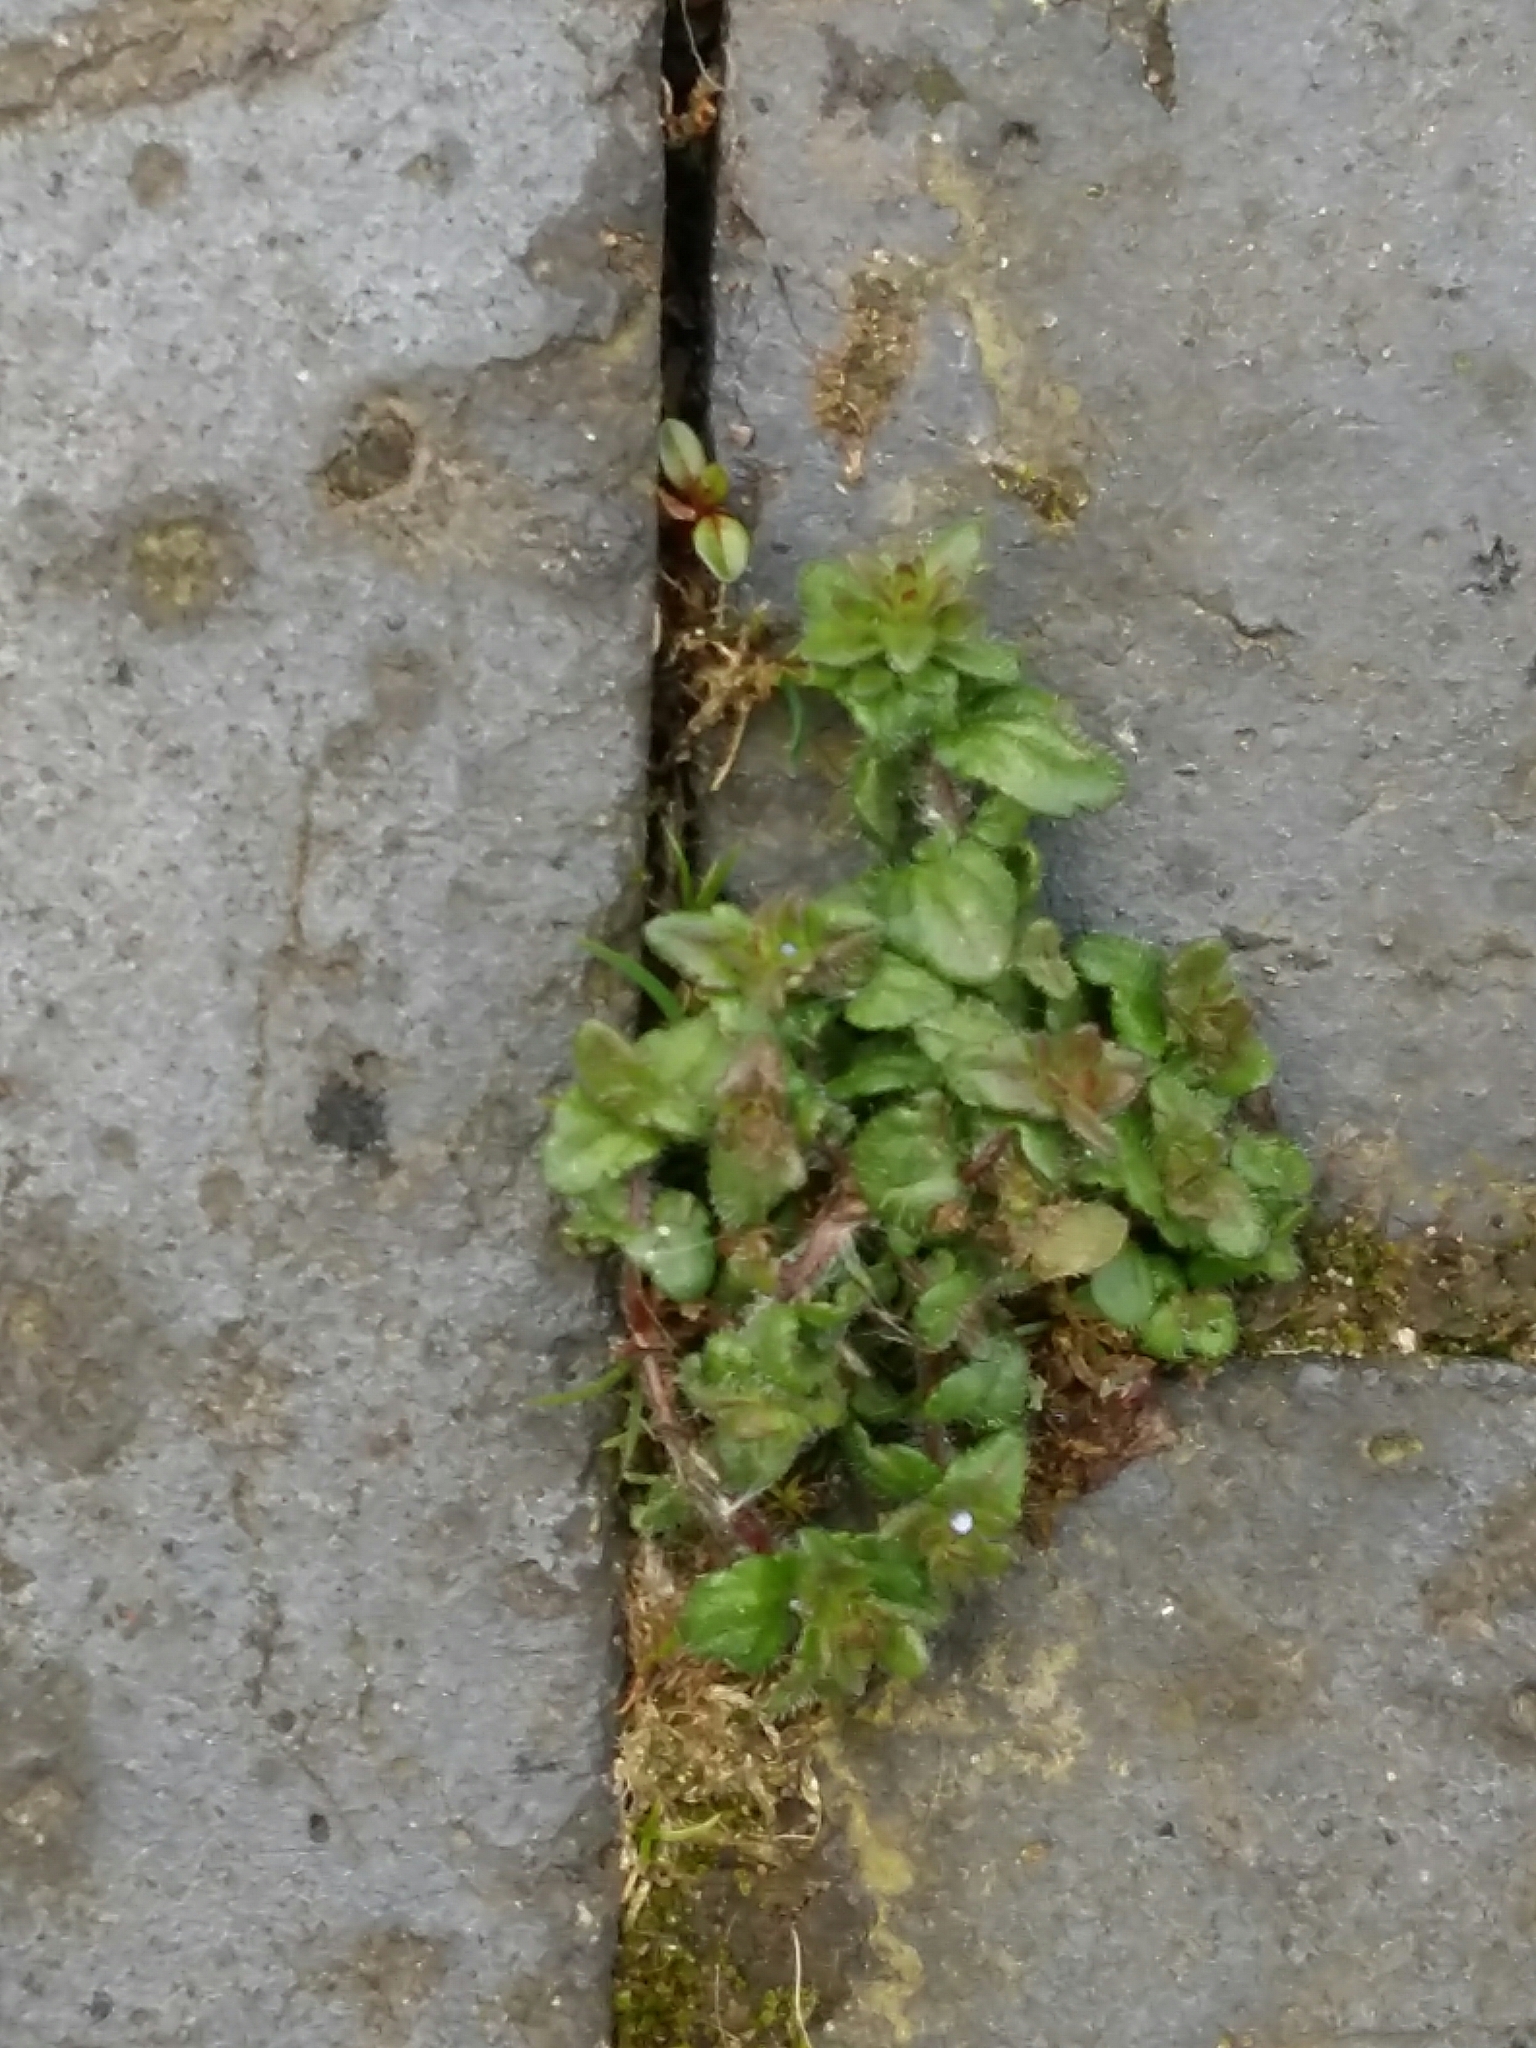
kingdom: Plantae
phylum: Tracheophyta
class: Magnoliopsida
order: Lamiales
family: Plantaginaceae
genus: Veronica
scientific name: Veronica arvensis
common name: Corn speedwell
